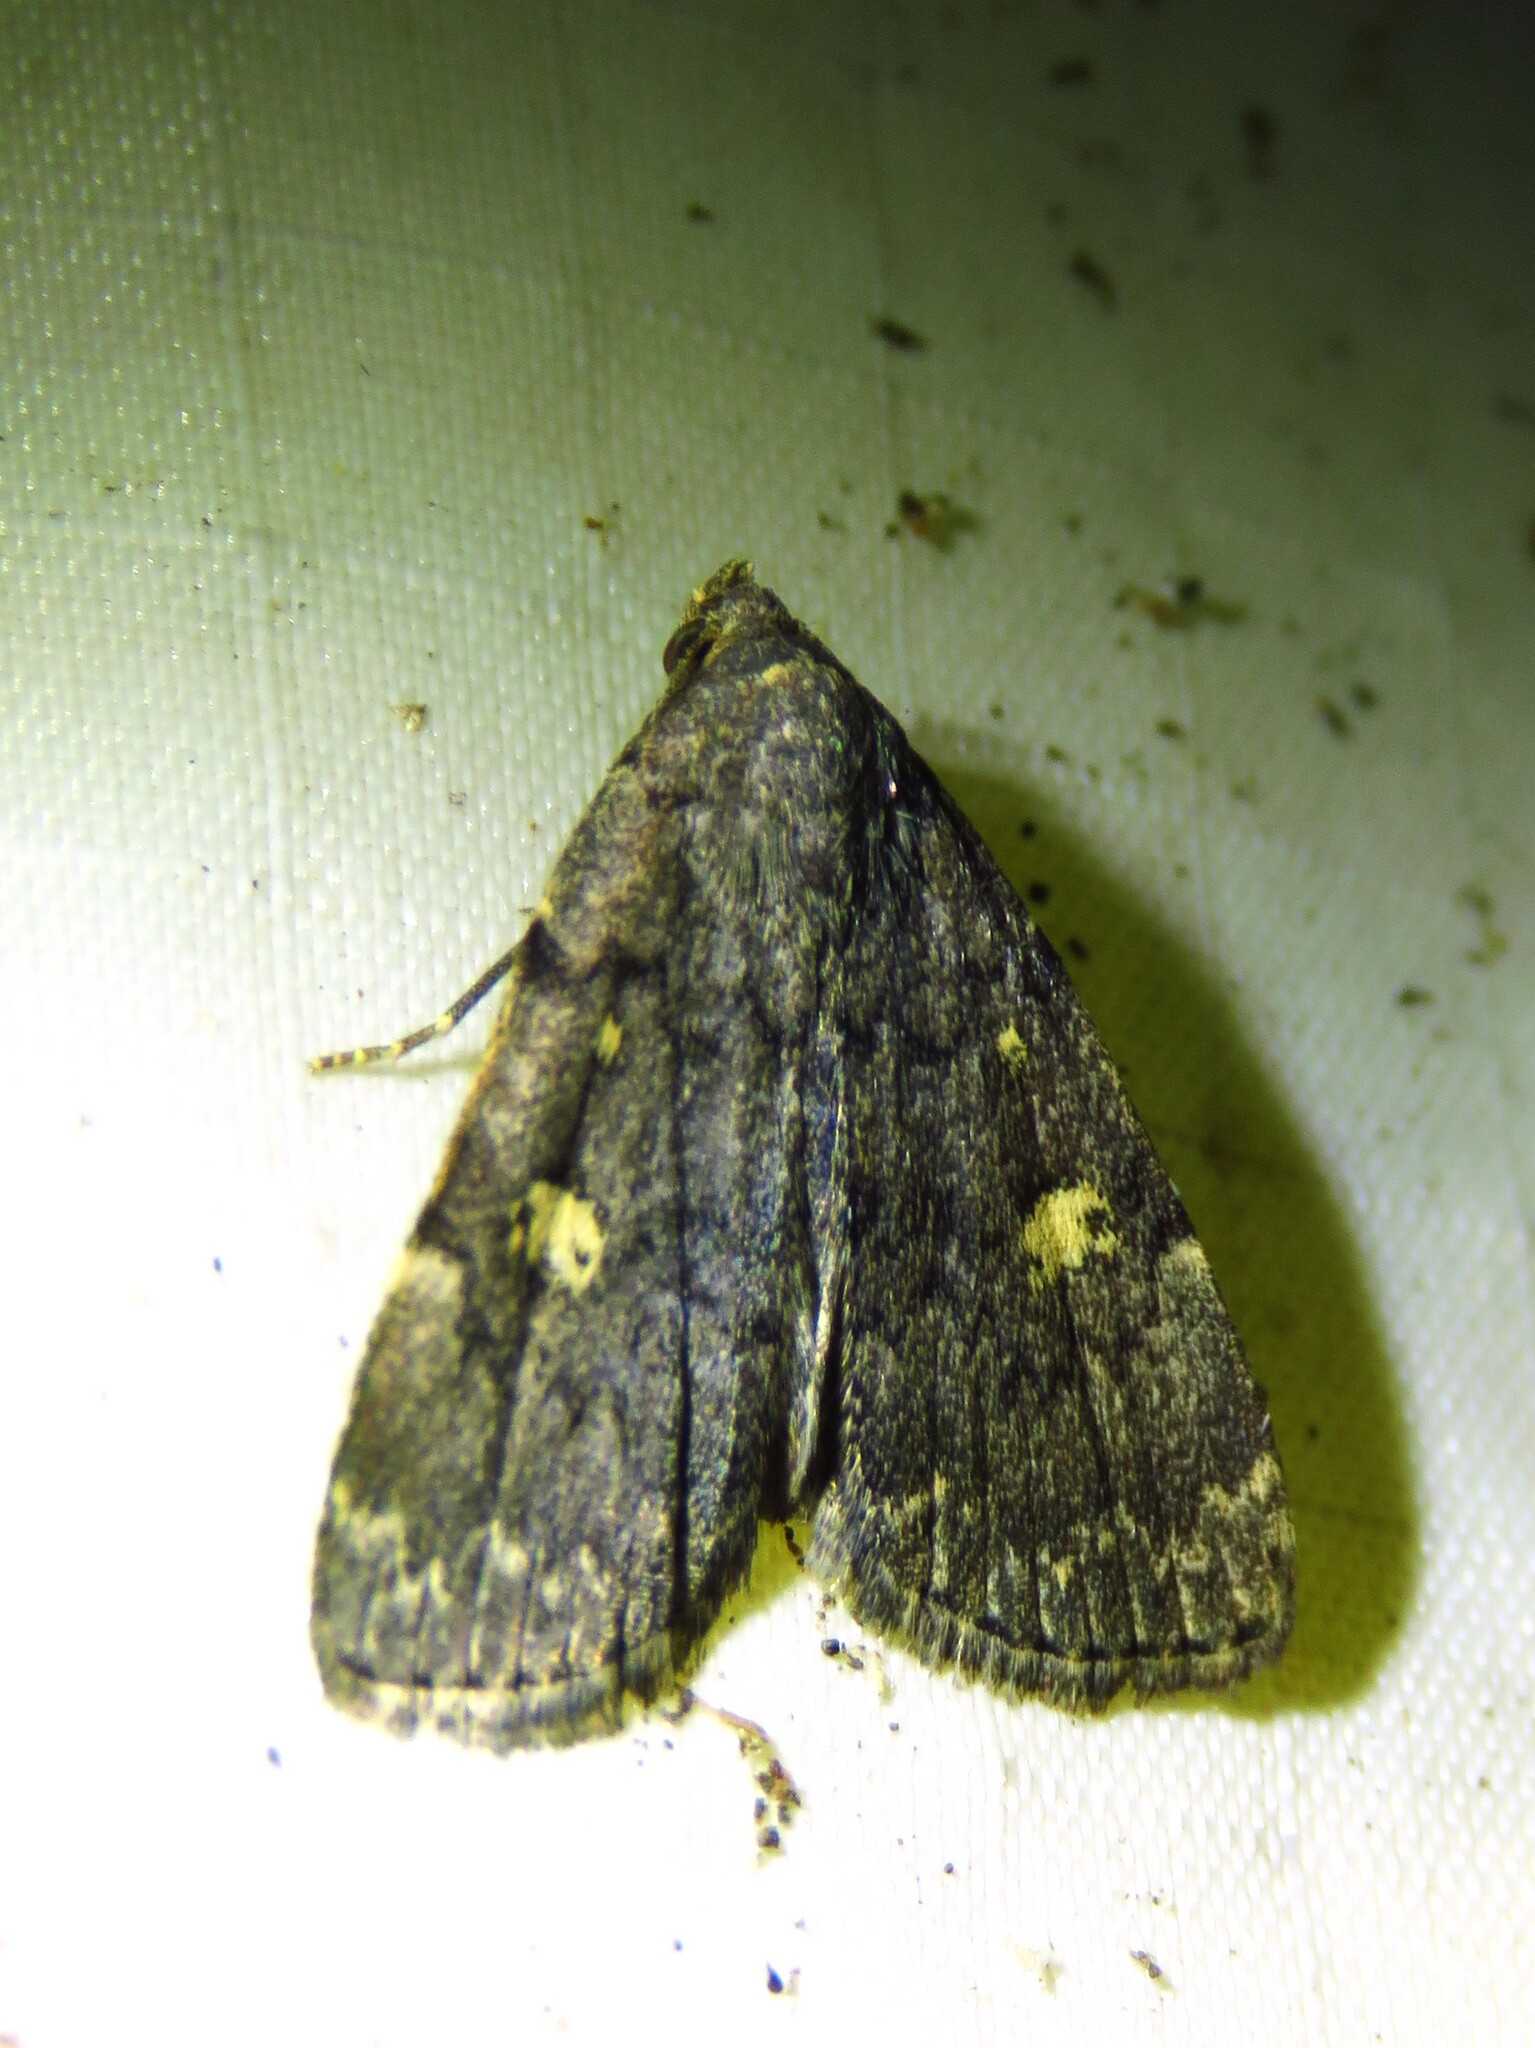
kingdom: Animalia
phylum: Arthropoda
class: Insecta
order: Lepidoptera
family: Erebidae
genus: Idia
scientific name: Idia aemula
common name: Common idia moth
